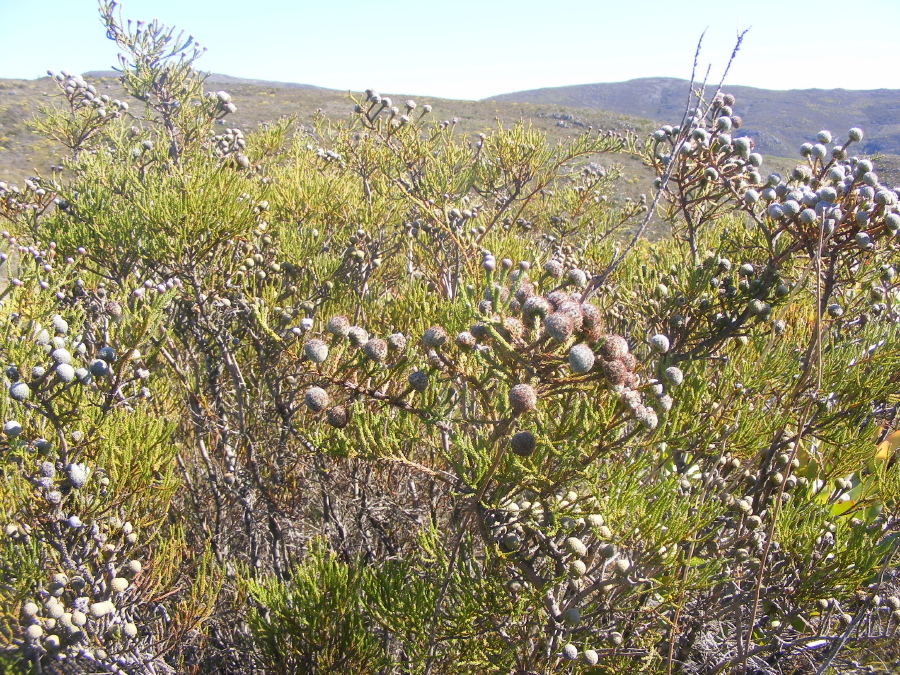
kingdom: Plantae
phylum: Tracheophyta
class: Magnoliopsida
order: Bruniales
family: Bruniaceae
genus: Brunia
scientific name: Brunia noduliflora
